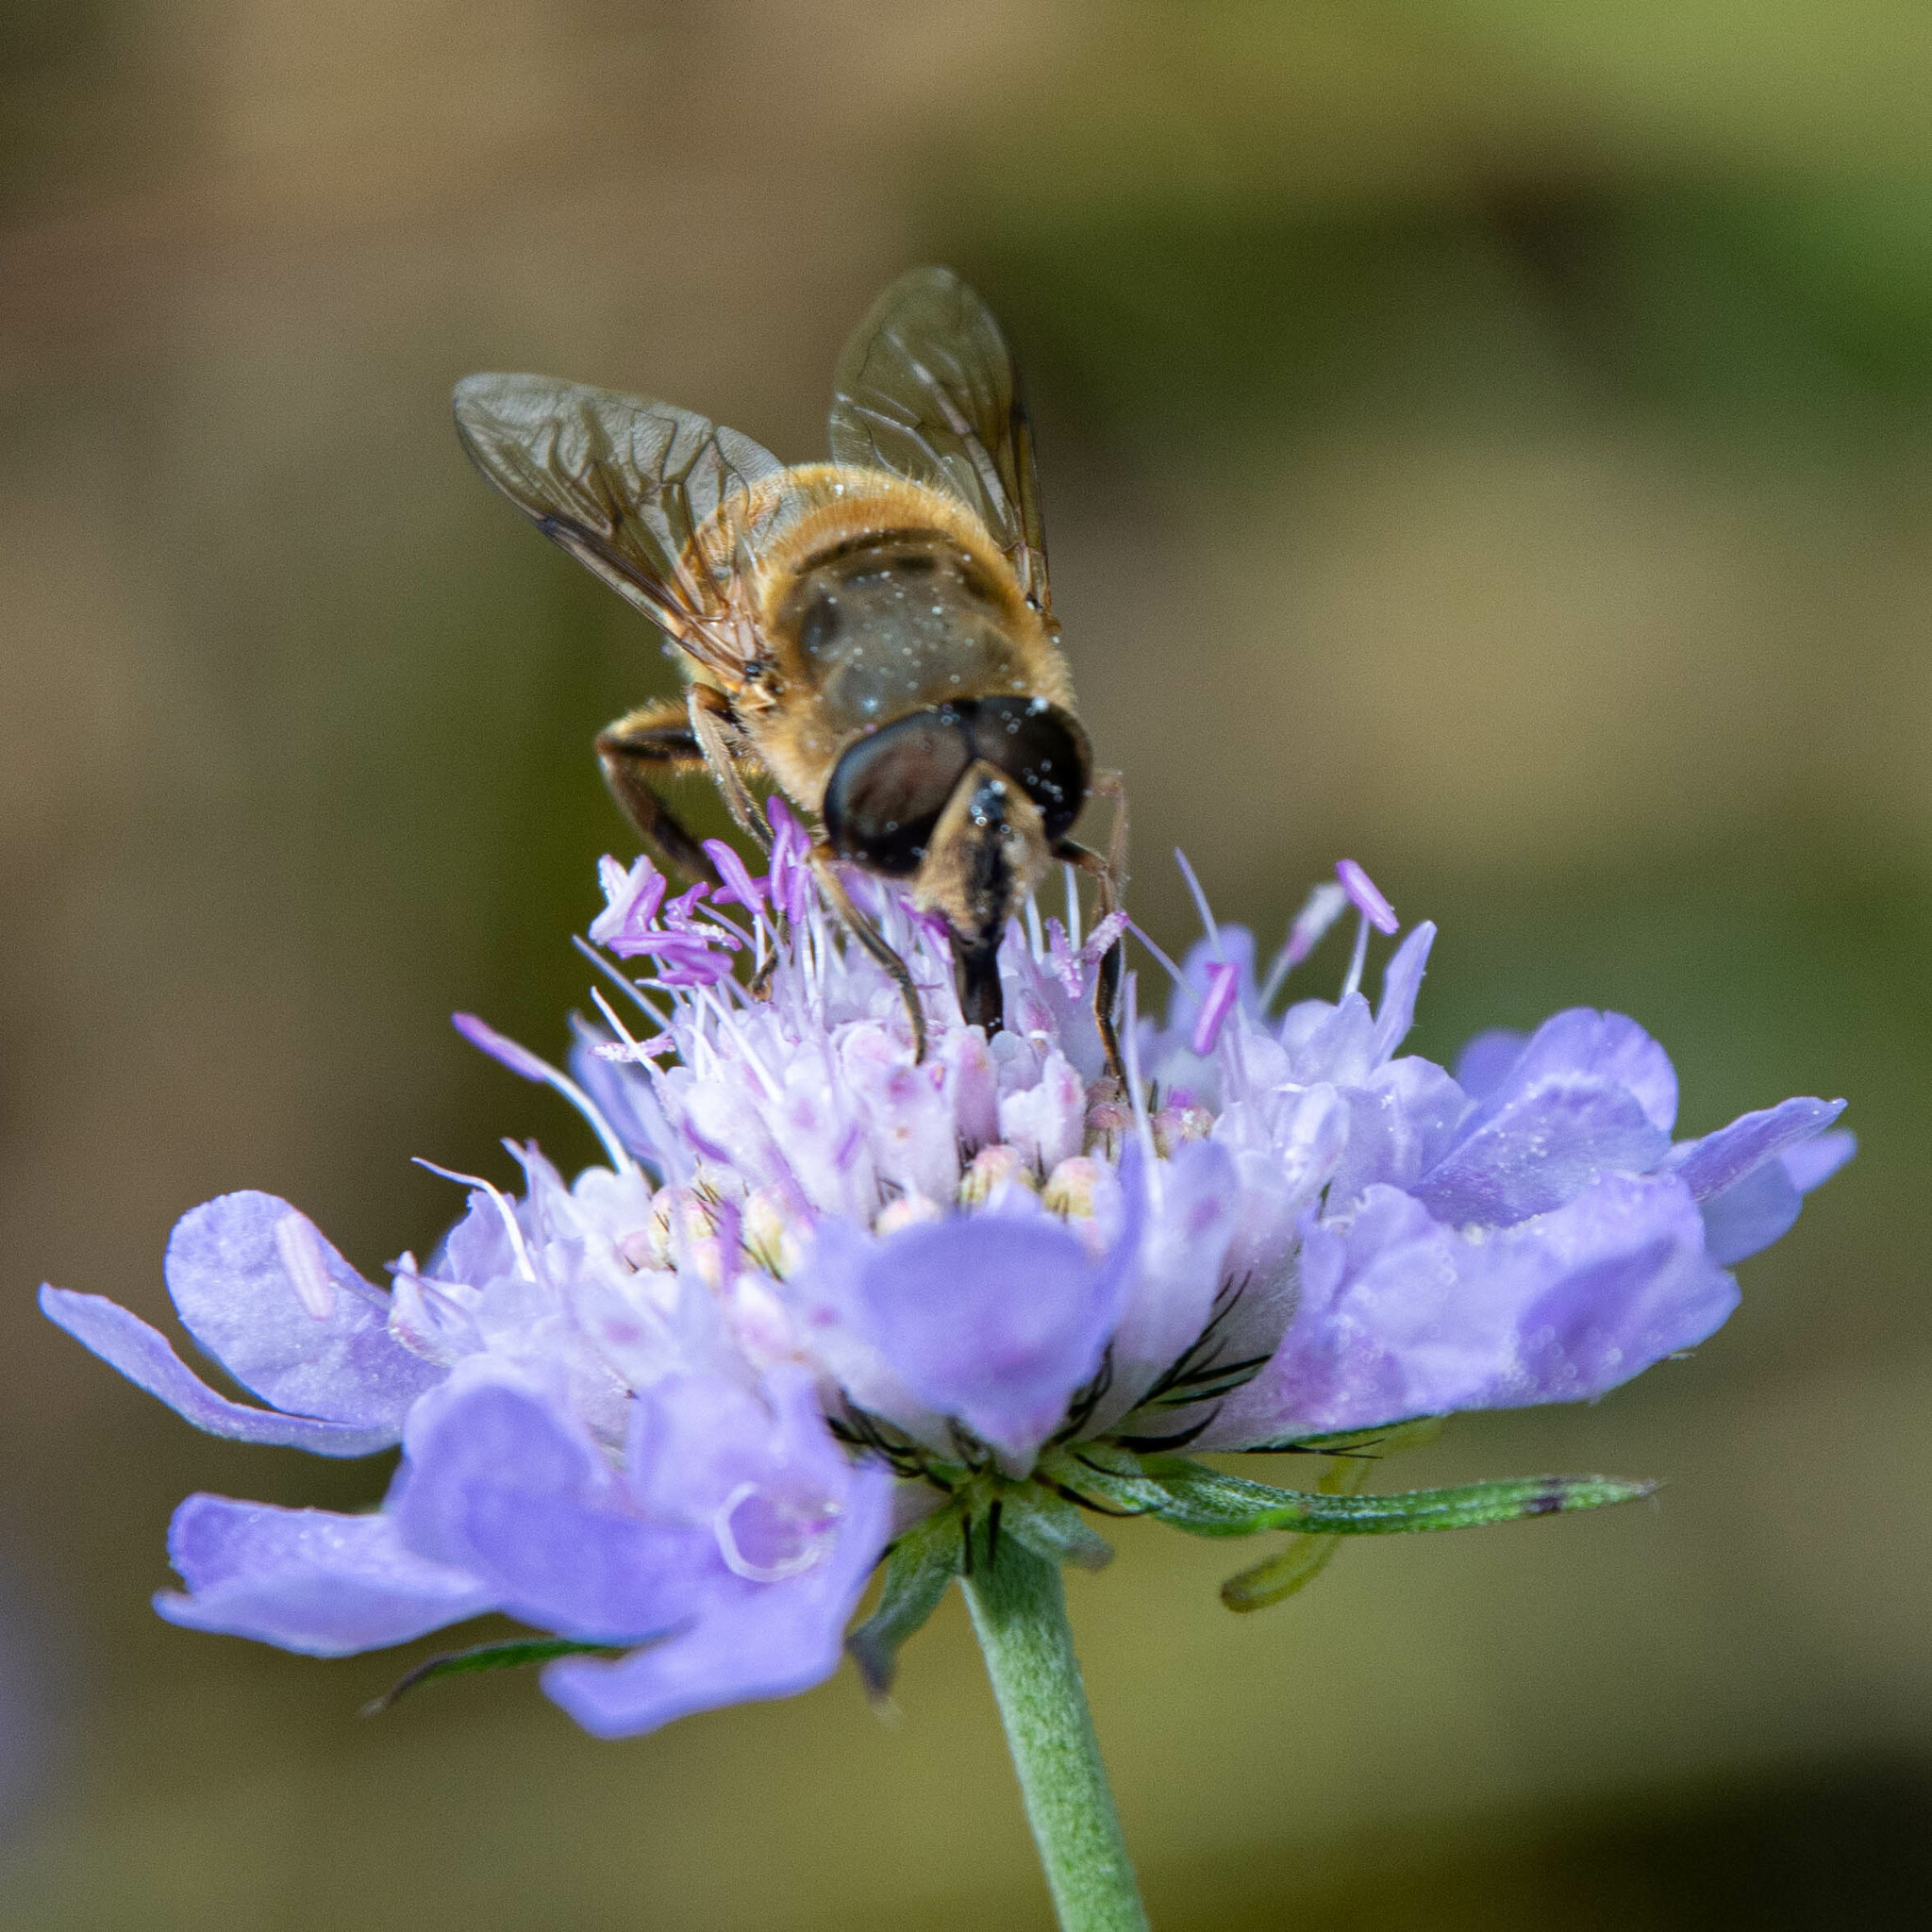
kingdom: Animalia
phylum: Arthropoda
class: Insecta
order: Diptera
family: Syrphidae
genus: Eristalis
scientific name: Eristalis tenax
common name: Drone fly
